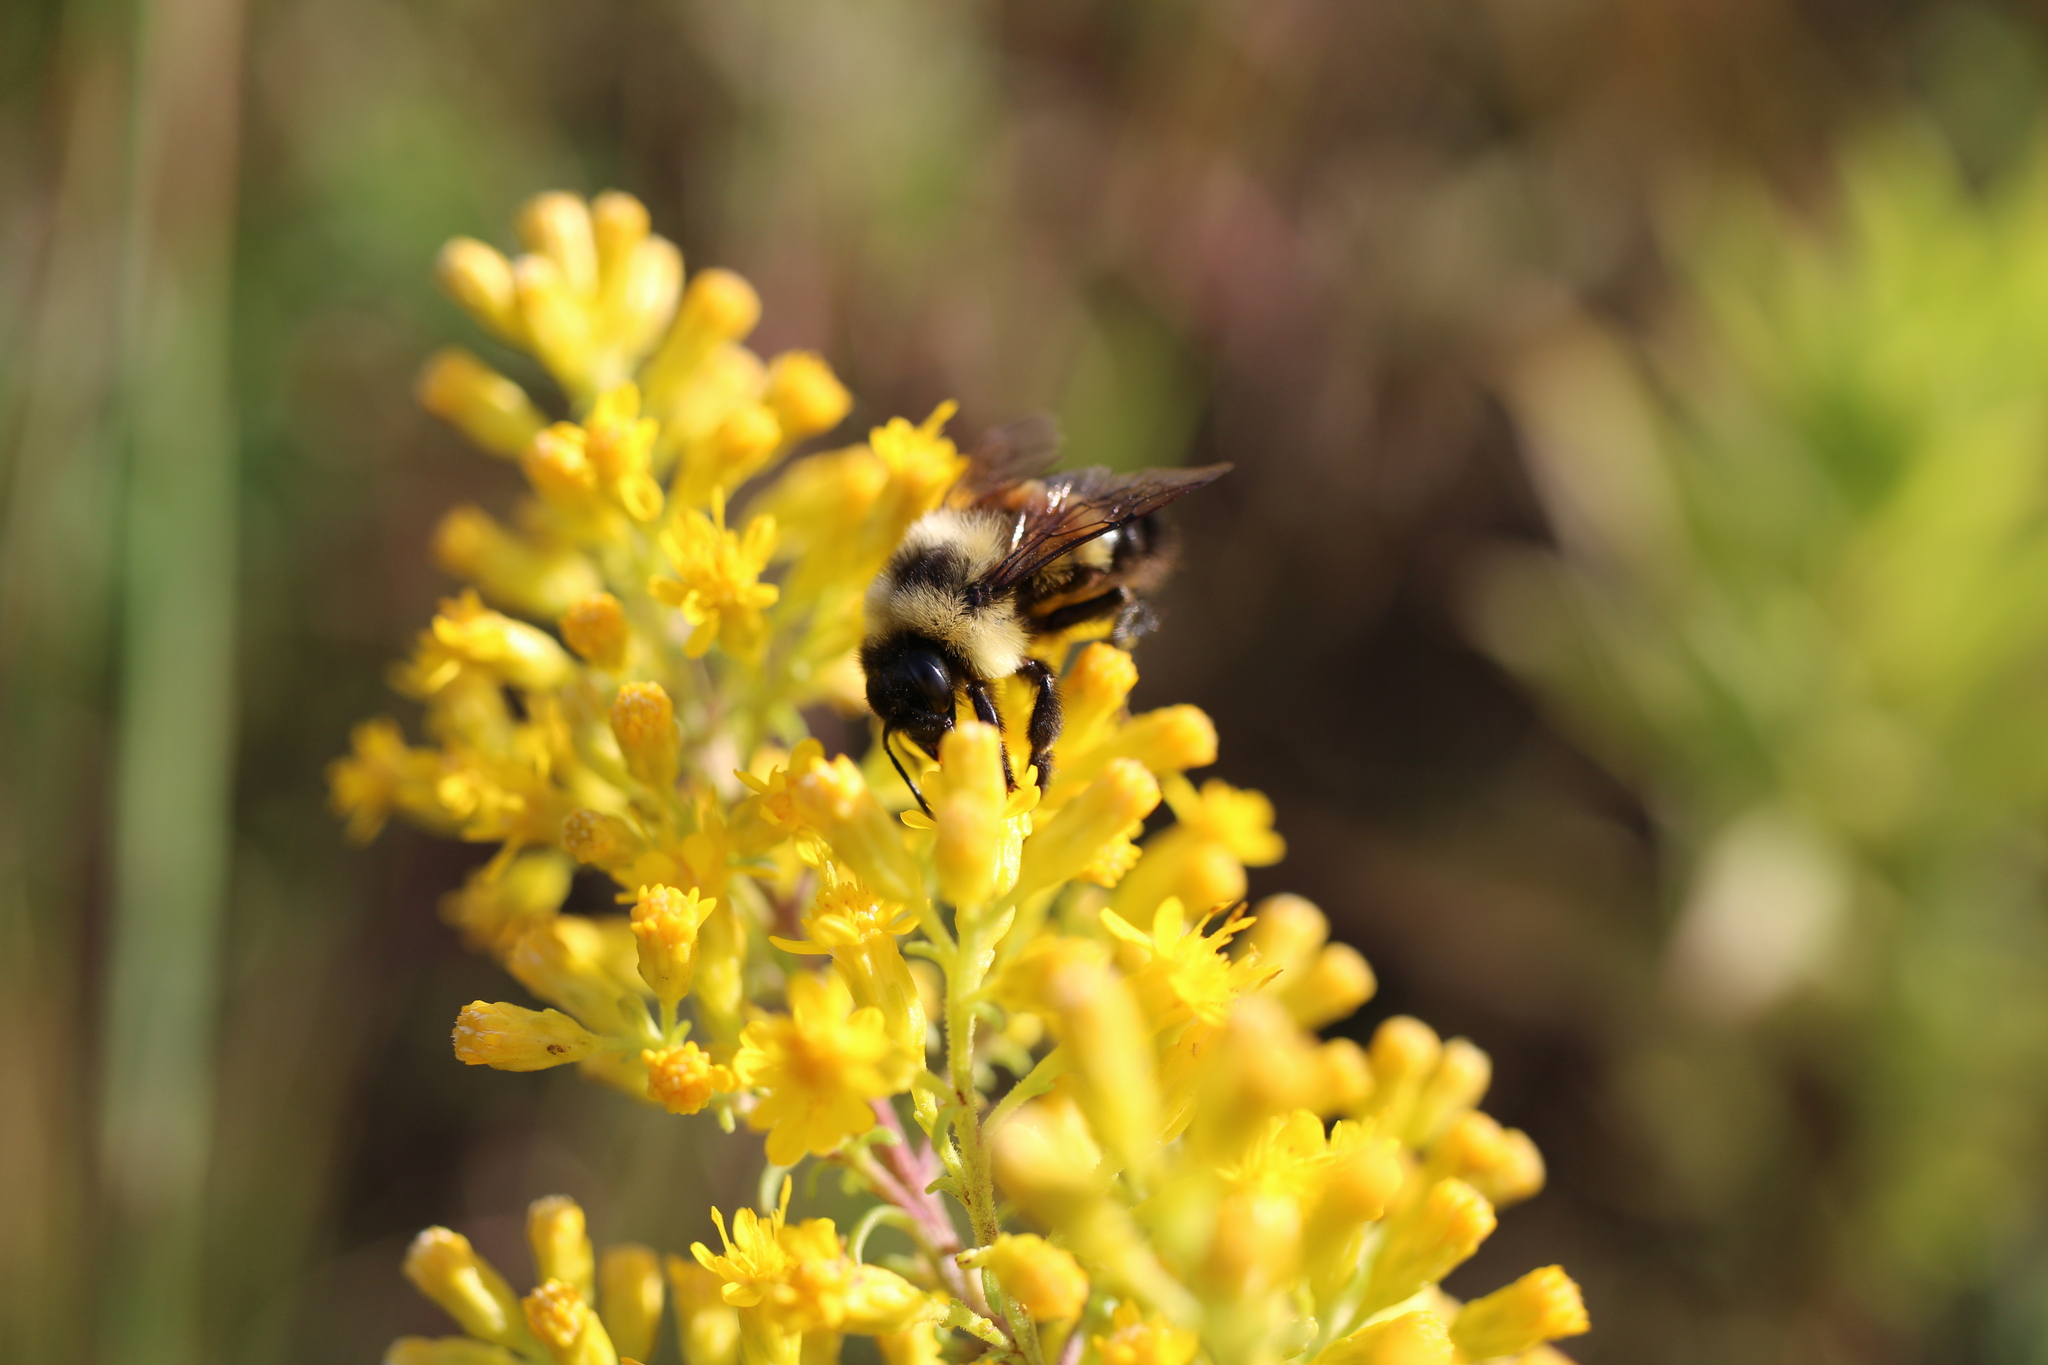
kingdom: Animalia
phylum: Arthropoda
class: Insecta
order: Hymenoptera
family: Apidae
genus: Bombus
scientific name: Bombus affinis
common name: Rusty patched bumble bee
